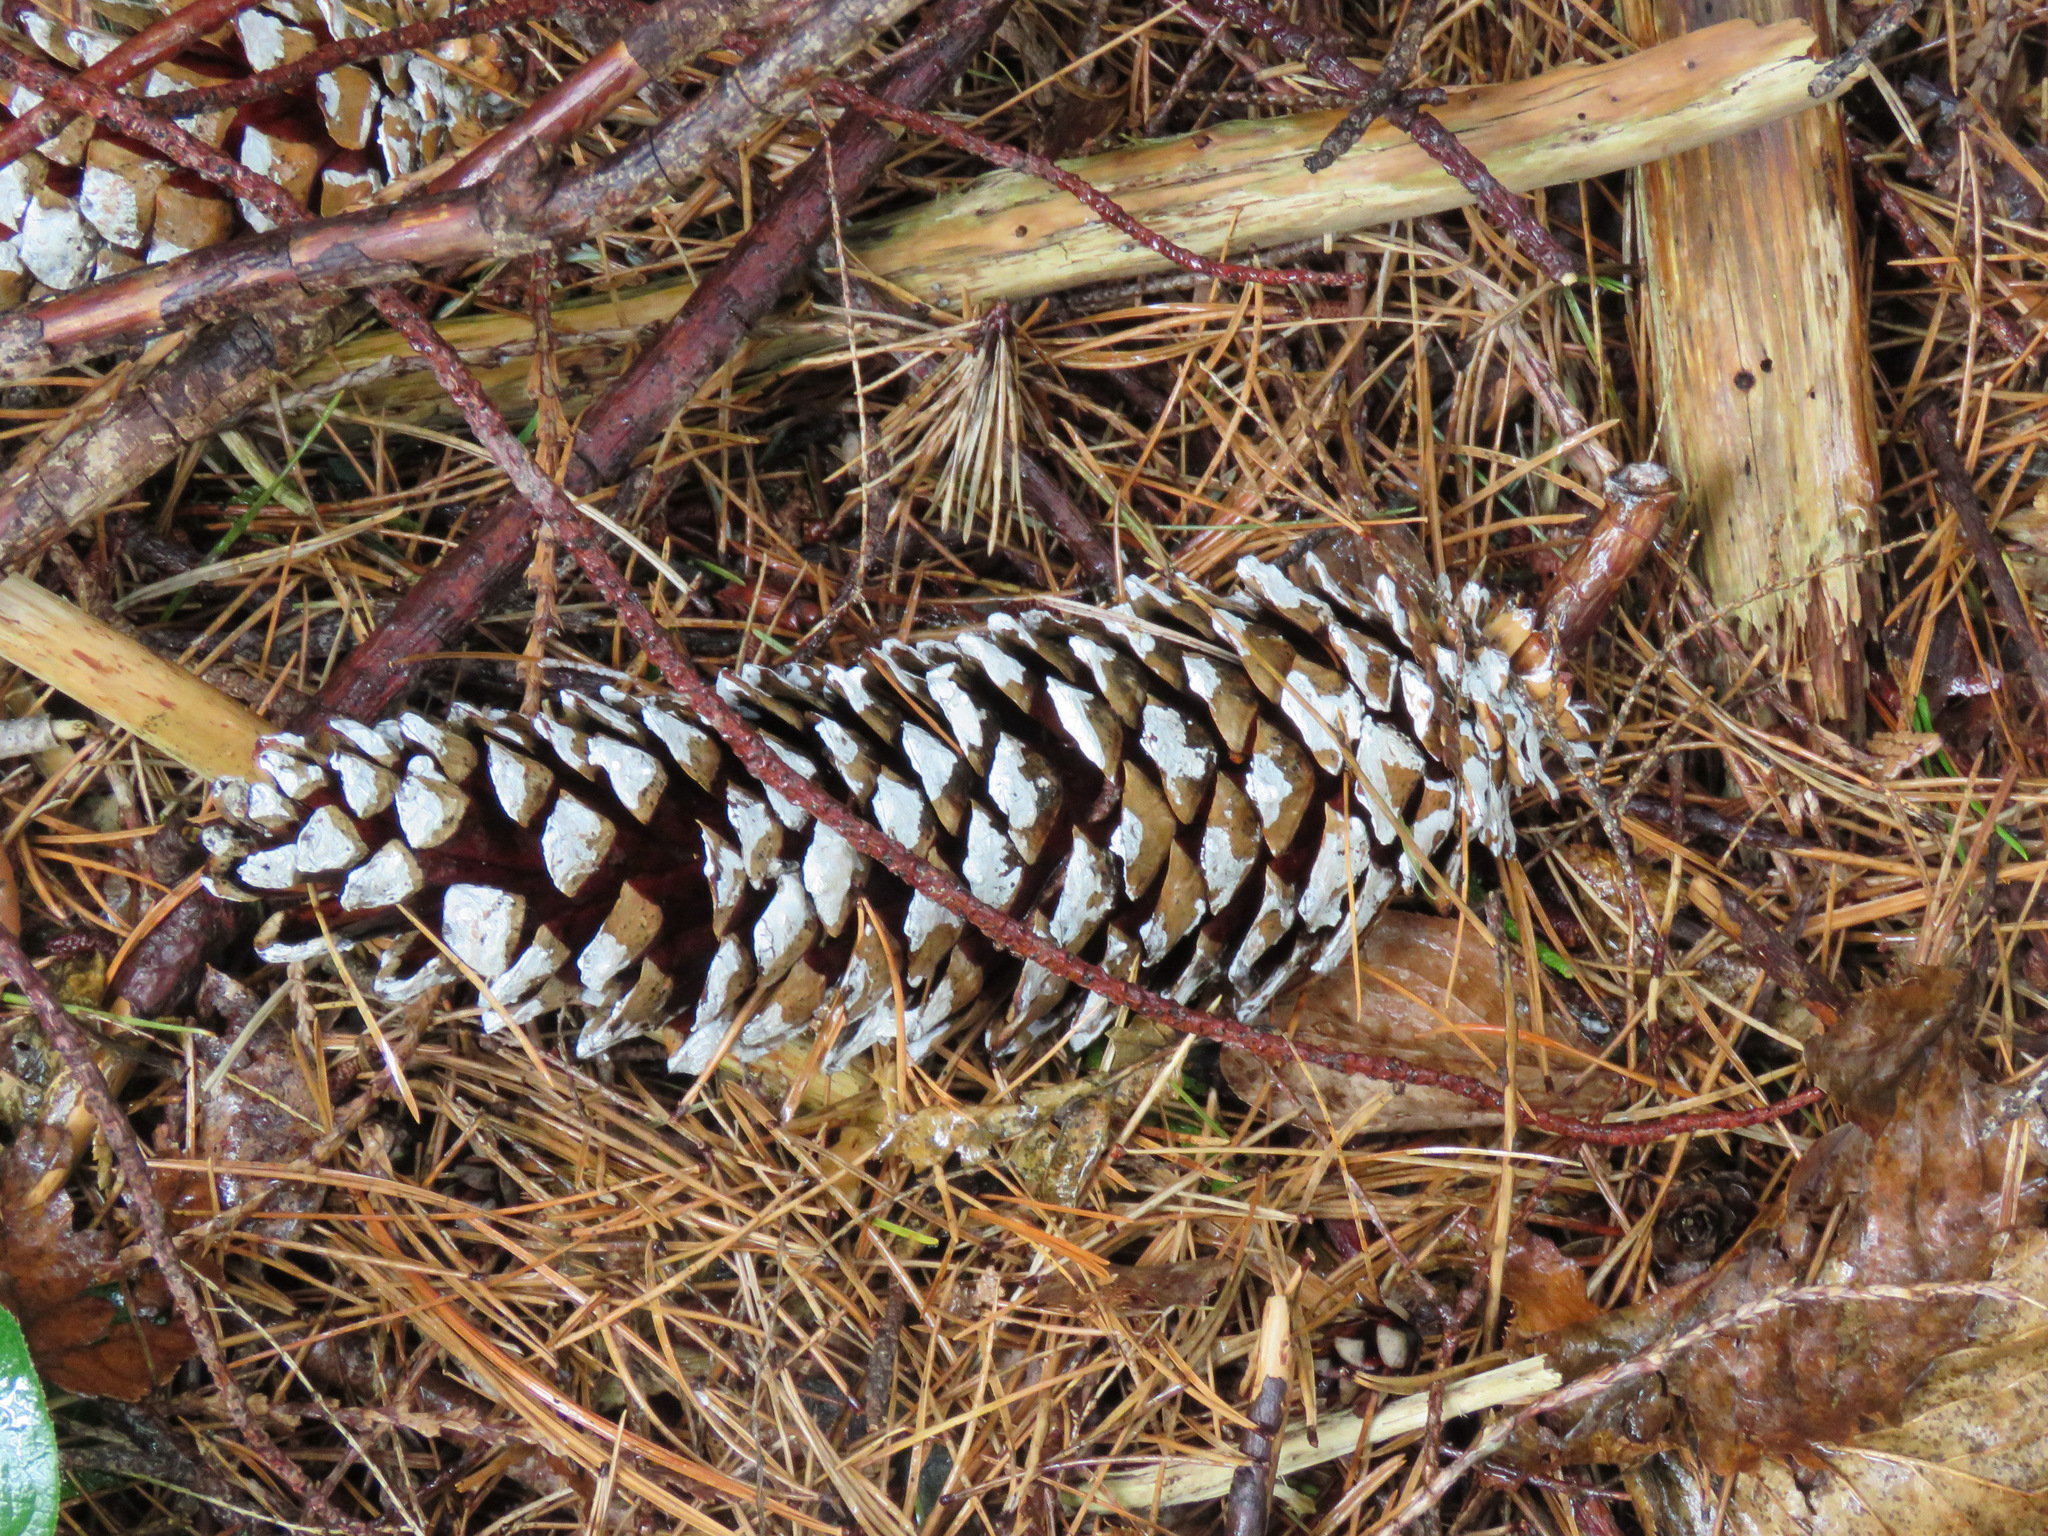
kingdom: Plantae
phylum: Tracheophyta
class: Pinopsida
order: Pinales
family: Pinaceae
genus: Pinus
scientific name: Pinus monticola
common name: Western white pine
